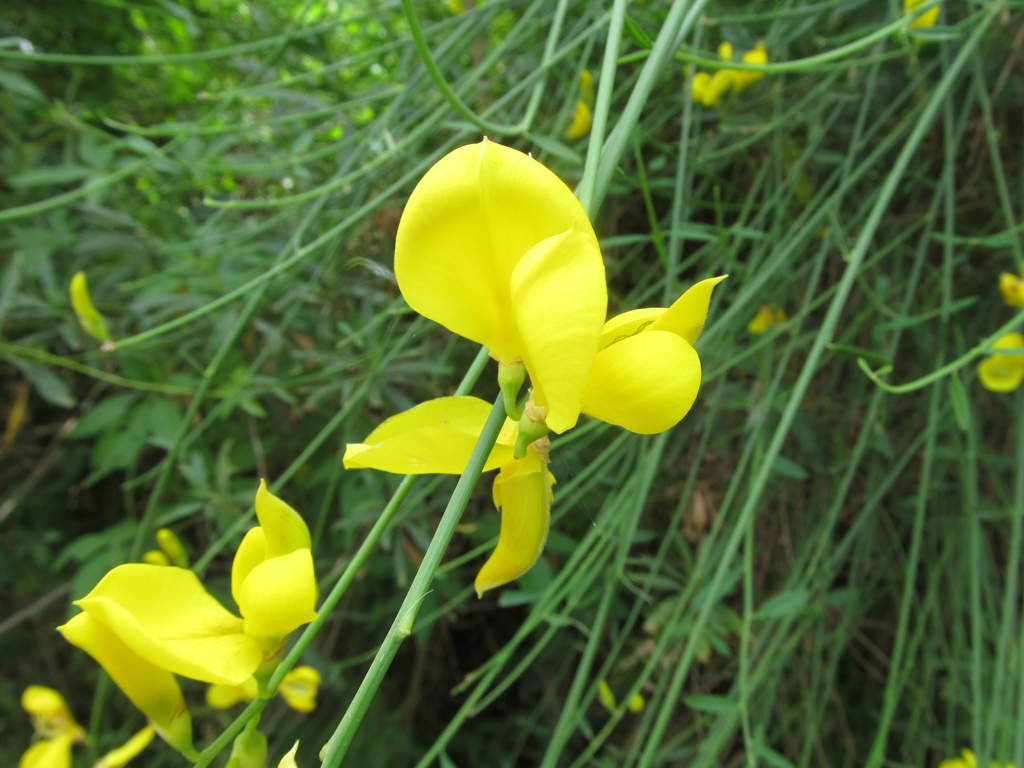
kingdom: Plantae
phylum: Tracheophyta
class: Magnoliopsida
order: Fabales
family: Fabaceae
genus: Spartium
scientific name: Spartium junceum
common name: Spanish broom
